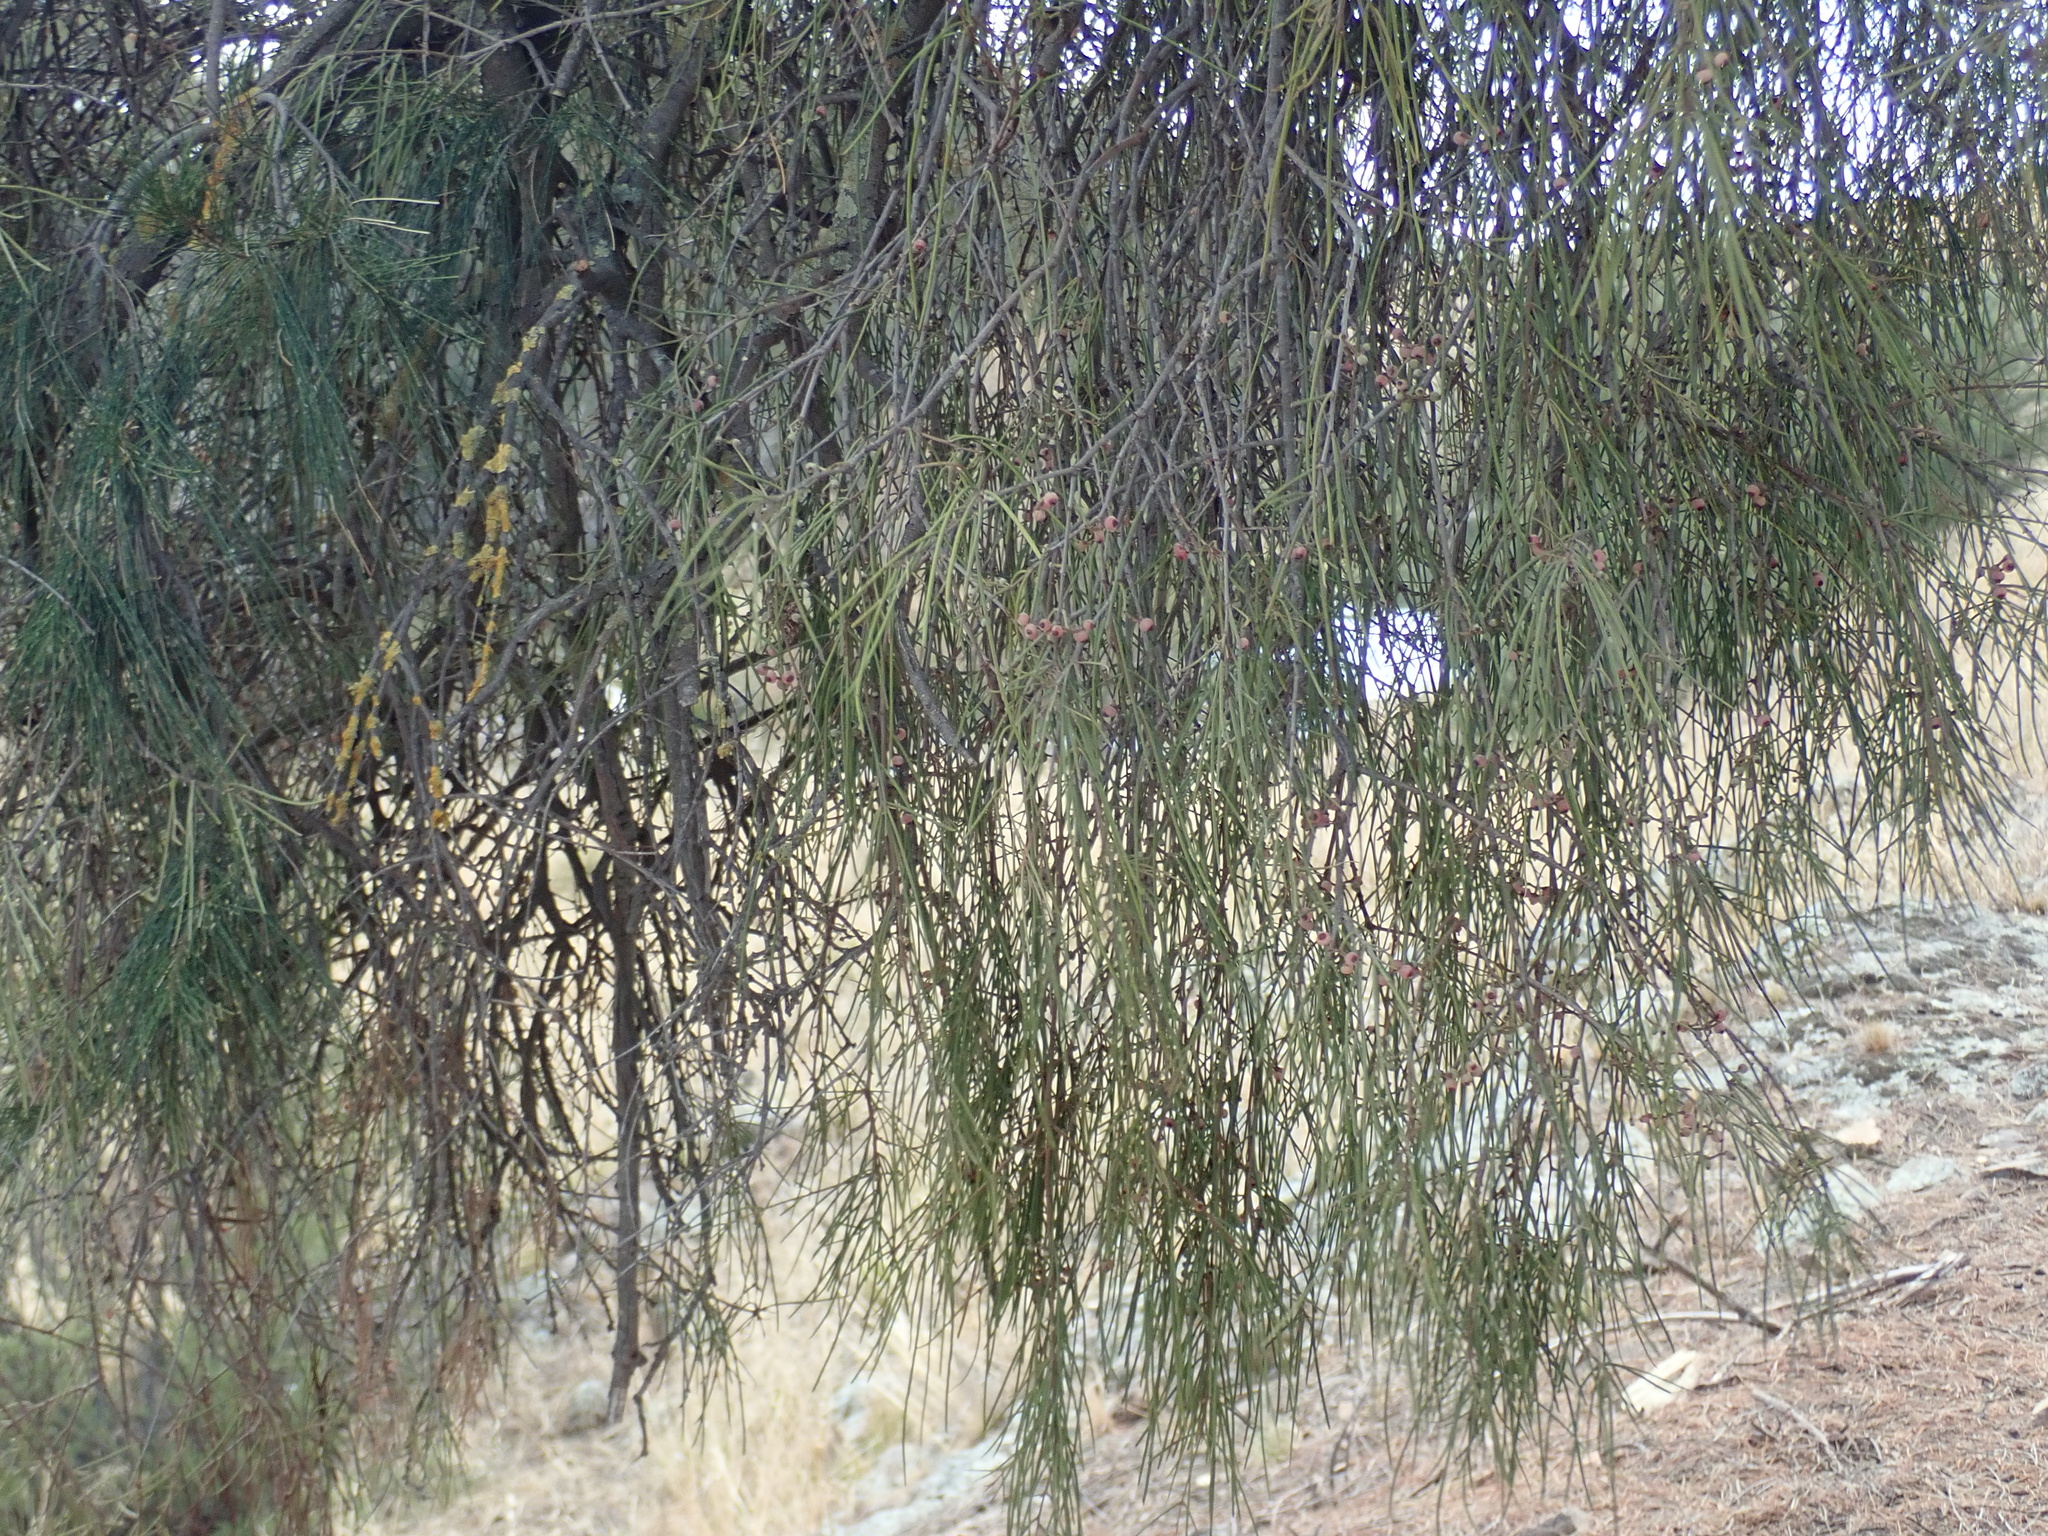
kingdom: Plantae
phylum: Tracheophyta
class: Magnoliopsida
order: Santalales
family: Loranthaceae
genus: Amyema
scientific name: Amyema cambagei
